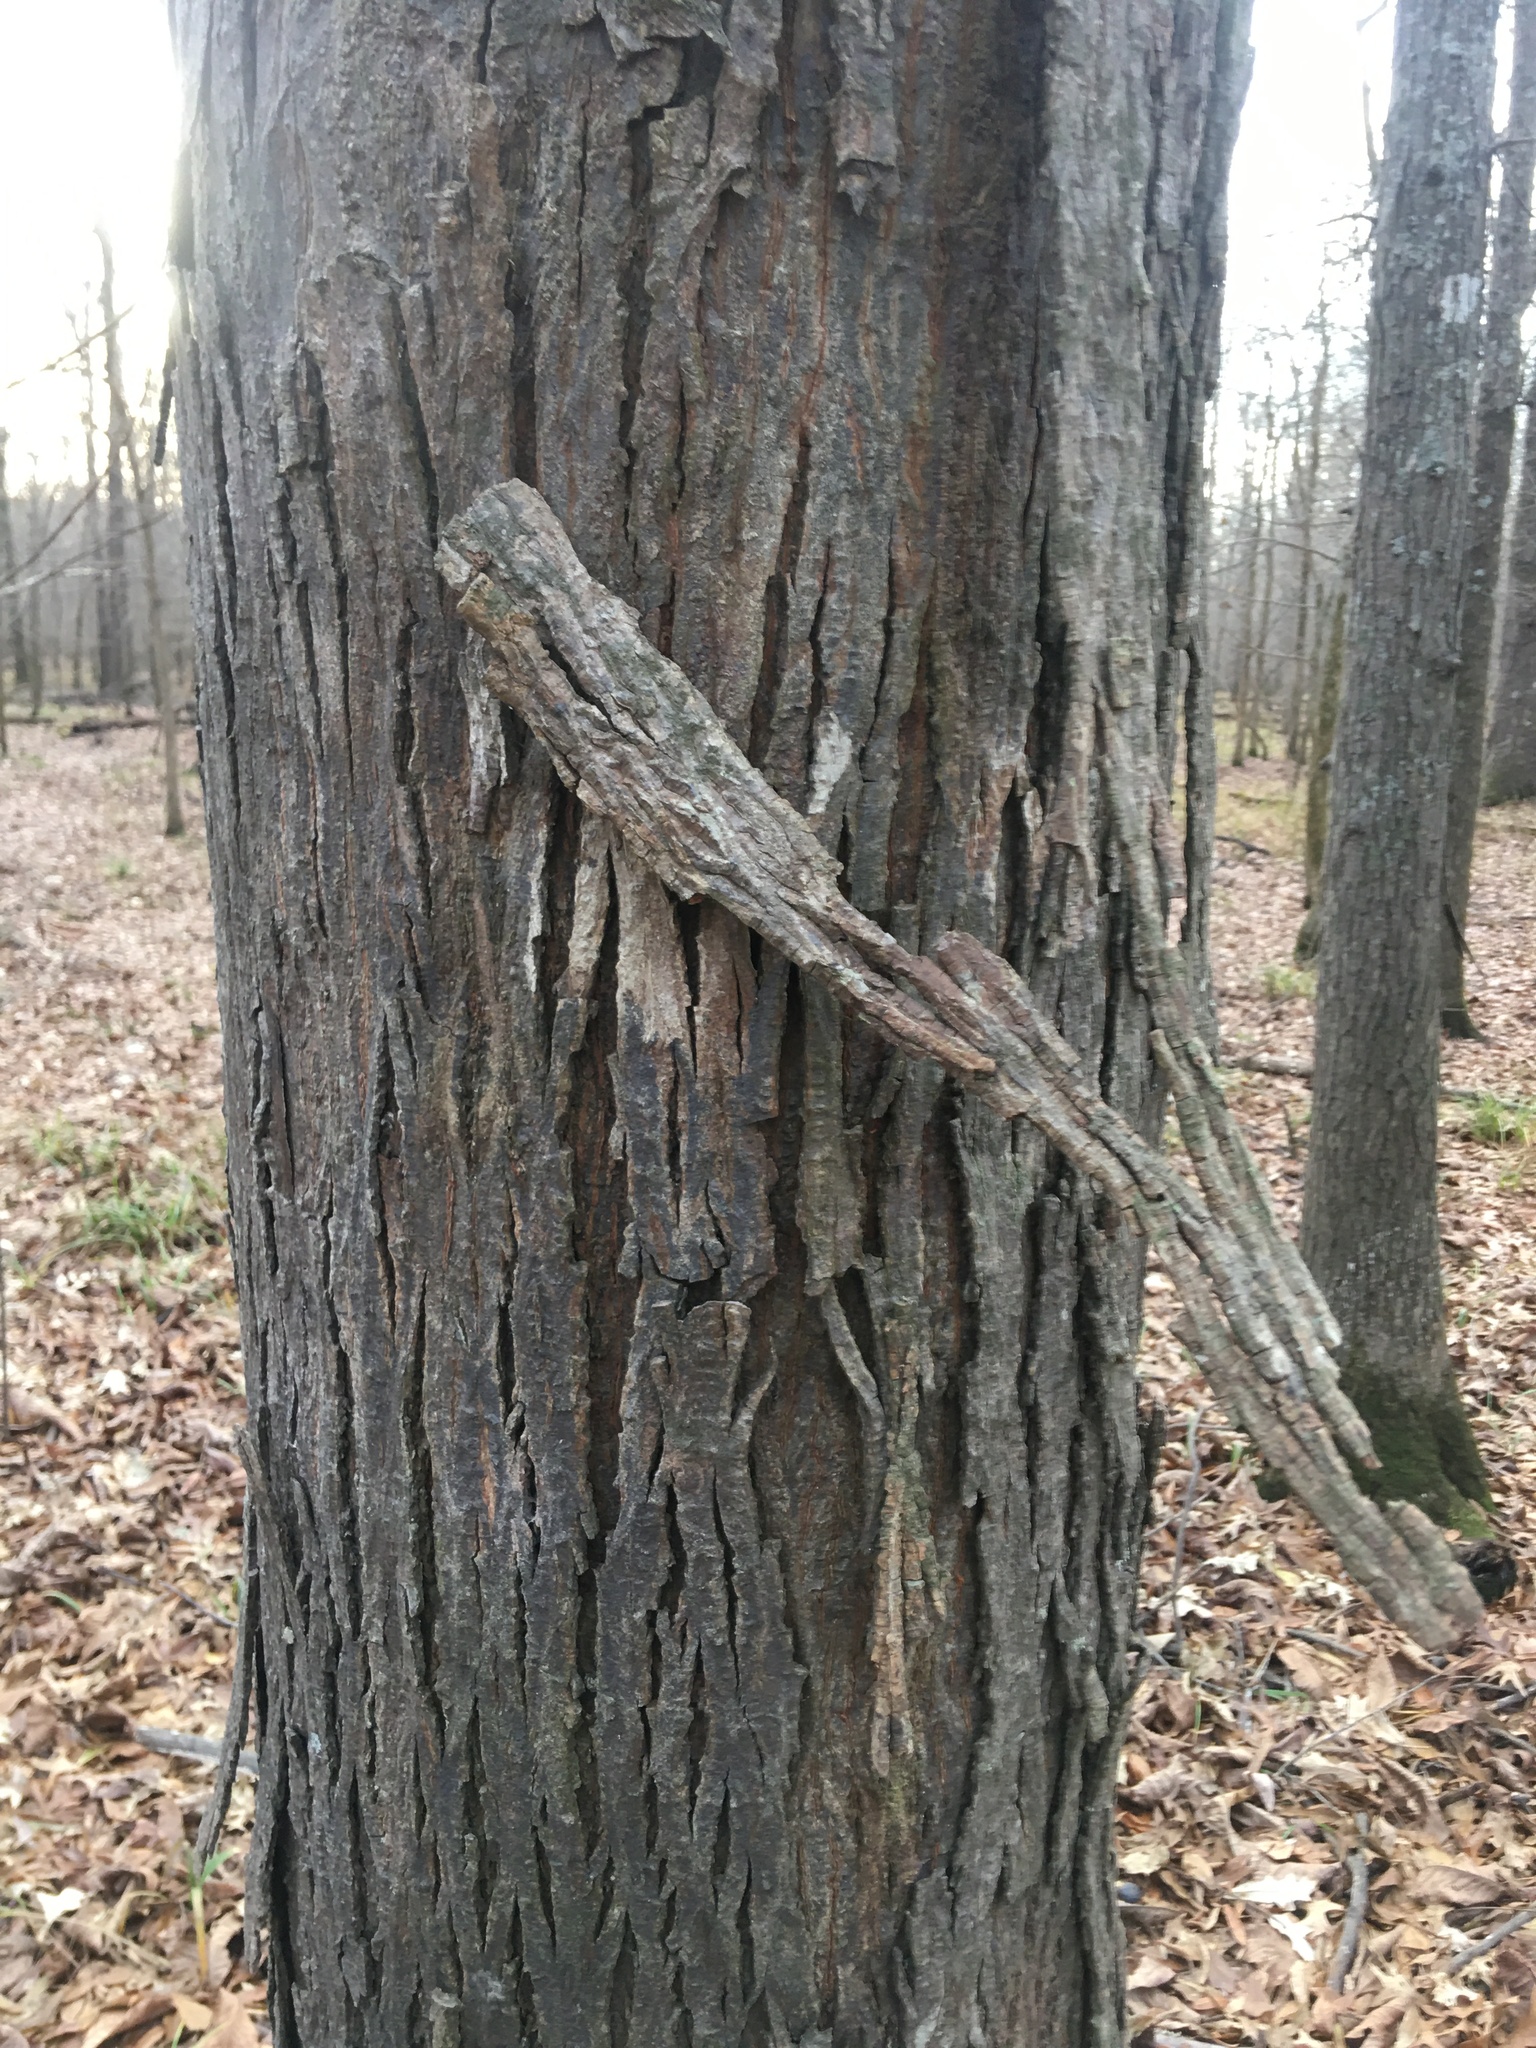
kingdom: Plantae
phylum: Tracheophyta
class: Magnoliopsida
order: Fagales
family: Juglandaceae
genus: Carya
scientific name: Carya ovata
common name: Shagbark hickory
